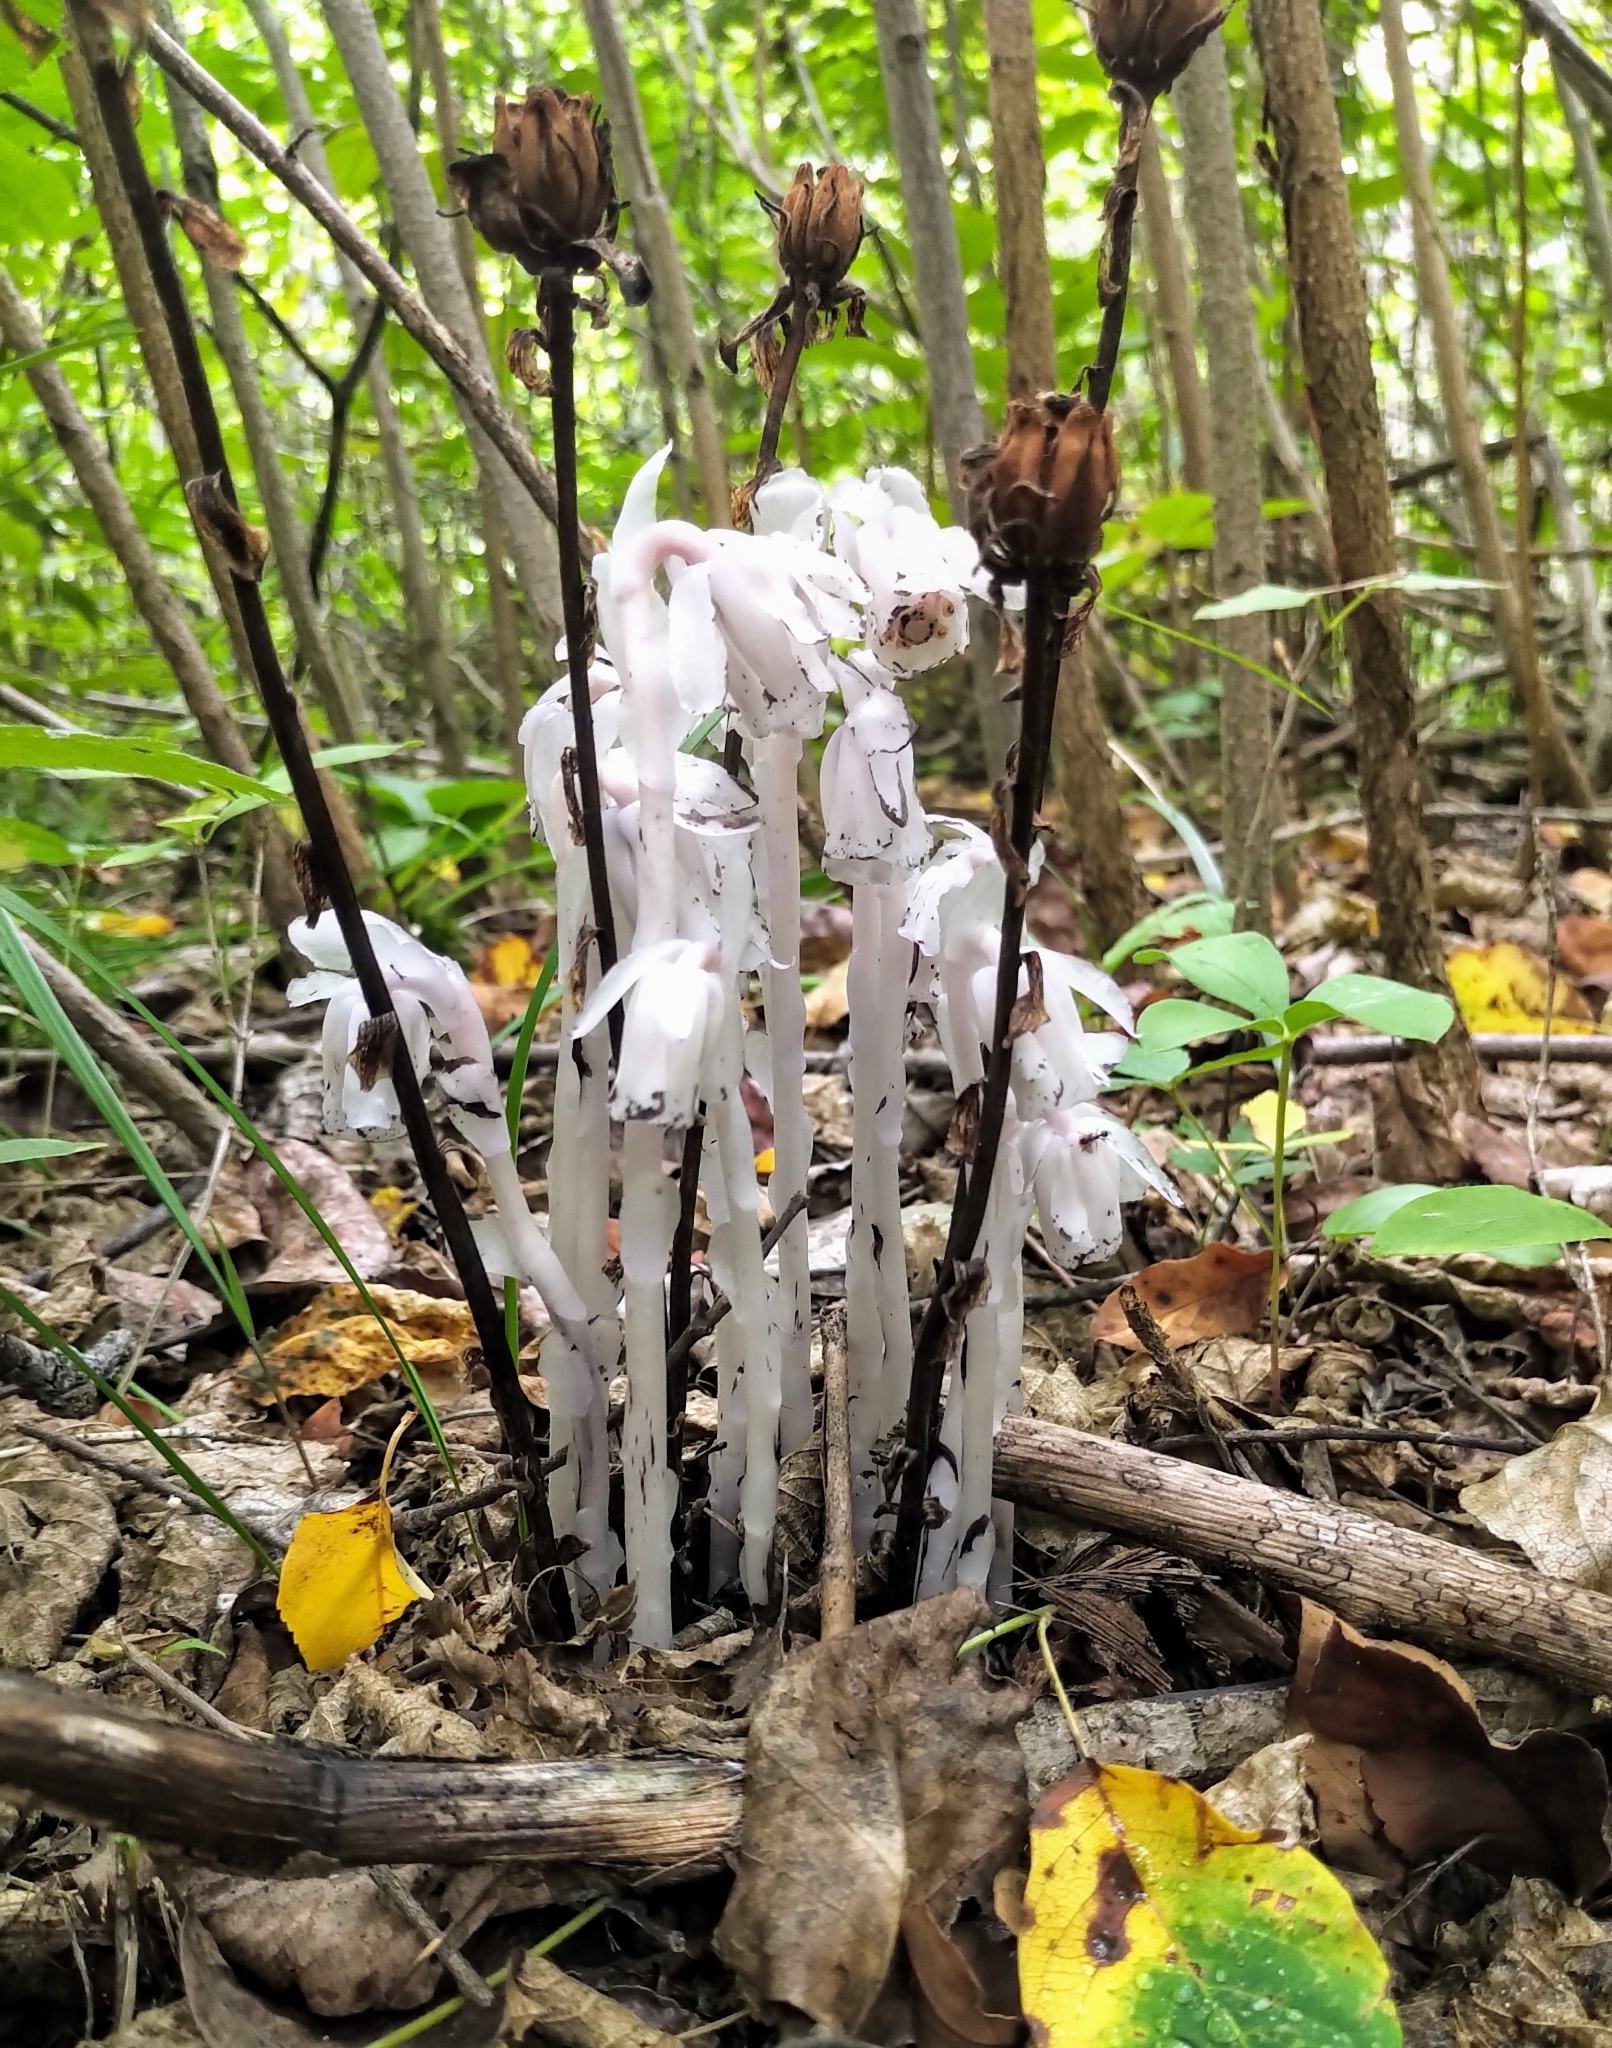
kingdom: Plantae
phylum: Tracheophyta
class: Magnoliopsida
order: Ericales
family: Ericaceae
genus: Monotropa
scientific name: Monotropa uniflora
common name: Convulsion root
